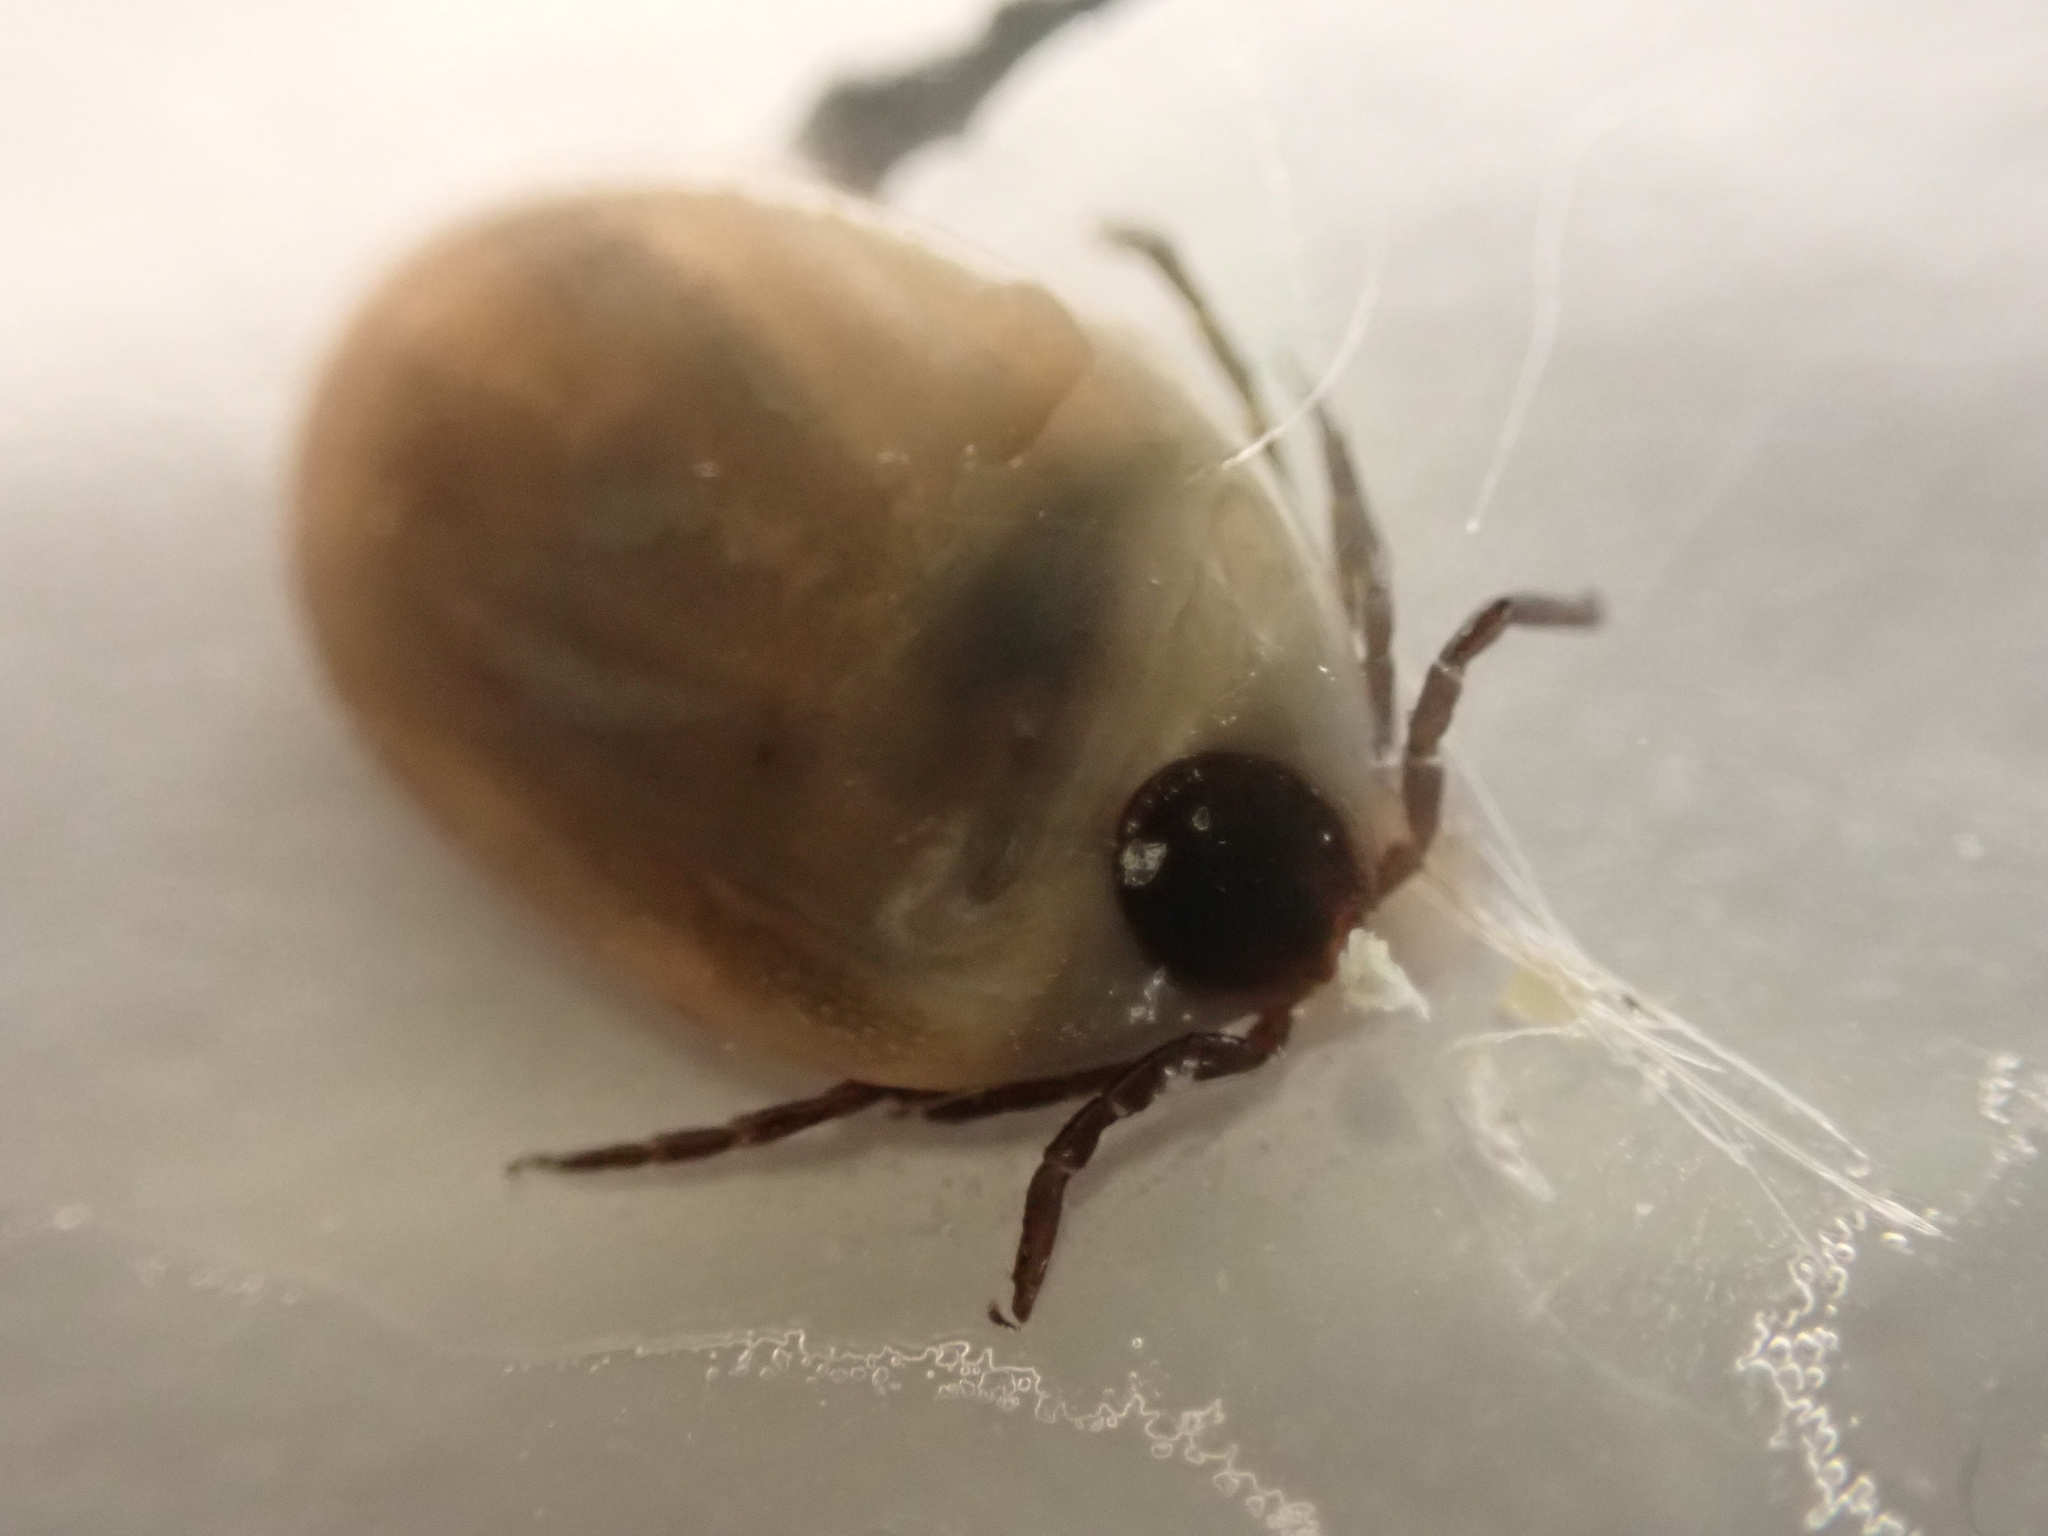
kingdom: Animalia
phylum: Arthropoda
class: Arachnida
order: Ixodida
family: Ixodidae
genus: Ixodes
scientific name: Ixodes scapularis
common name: Black legged tick
